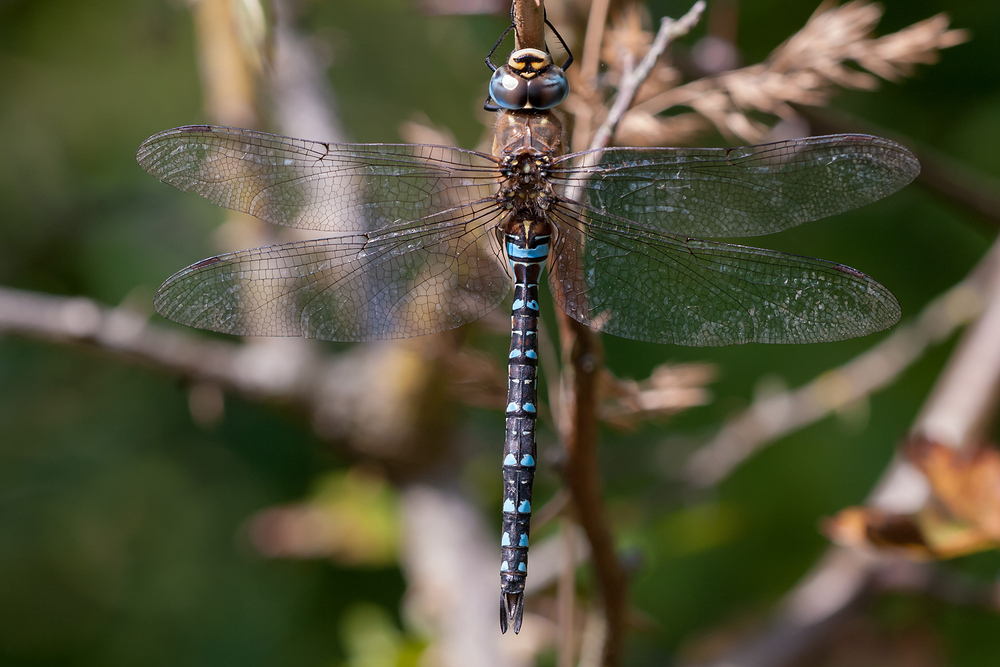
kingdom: Animalia
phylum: Arthropoda
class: Insecta
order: Odonata
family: Aeshnidae
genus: Aeshna
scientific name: Aeshna mixta
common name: Migrant hawker
